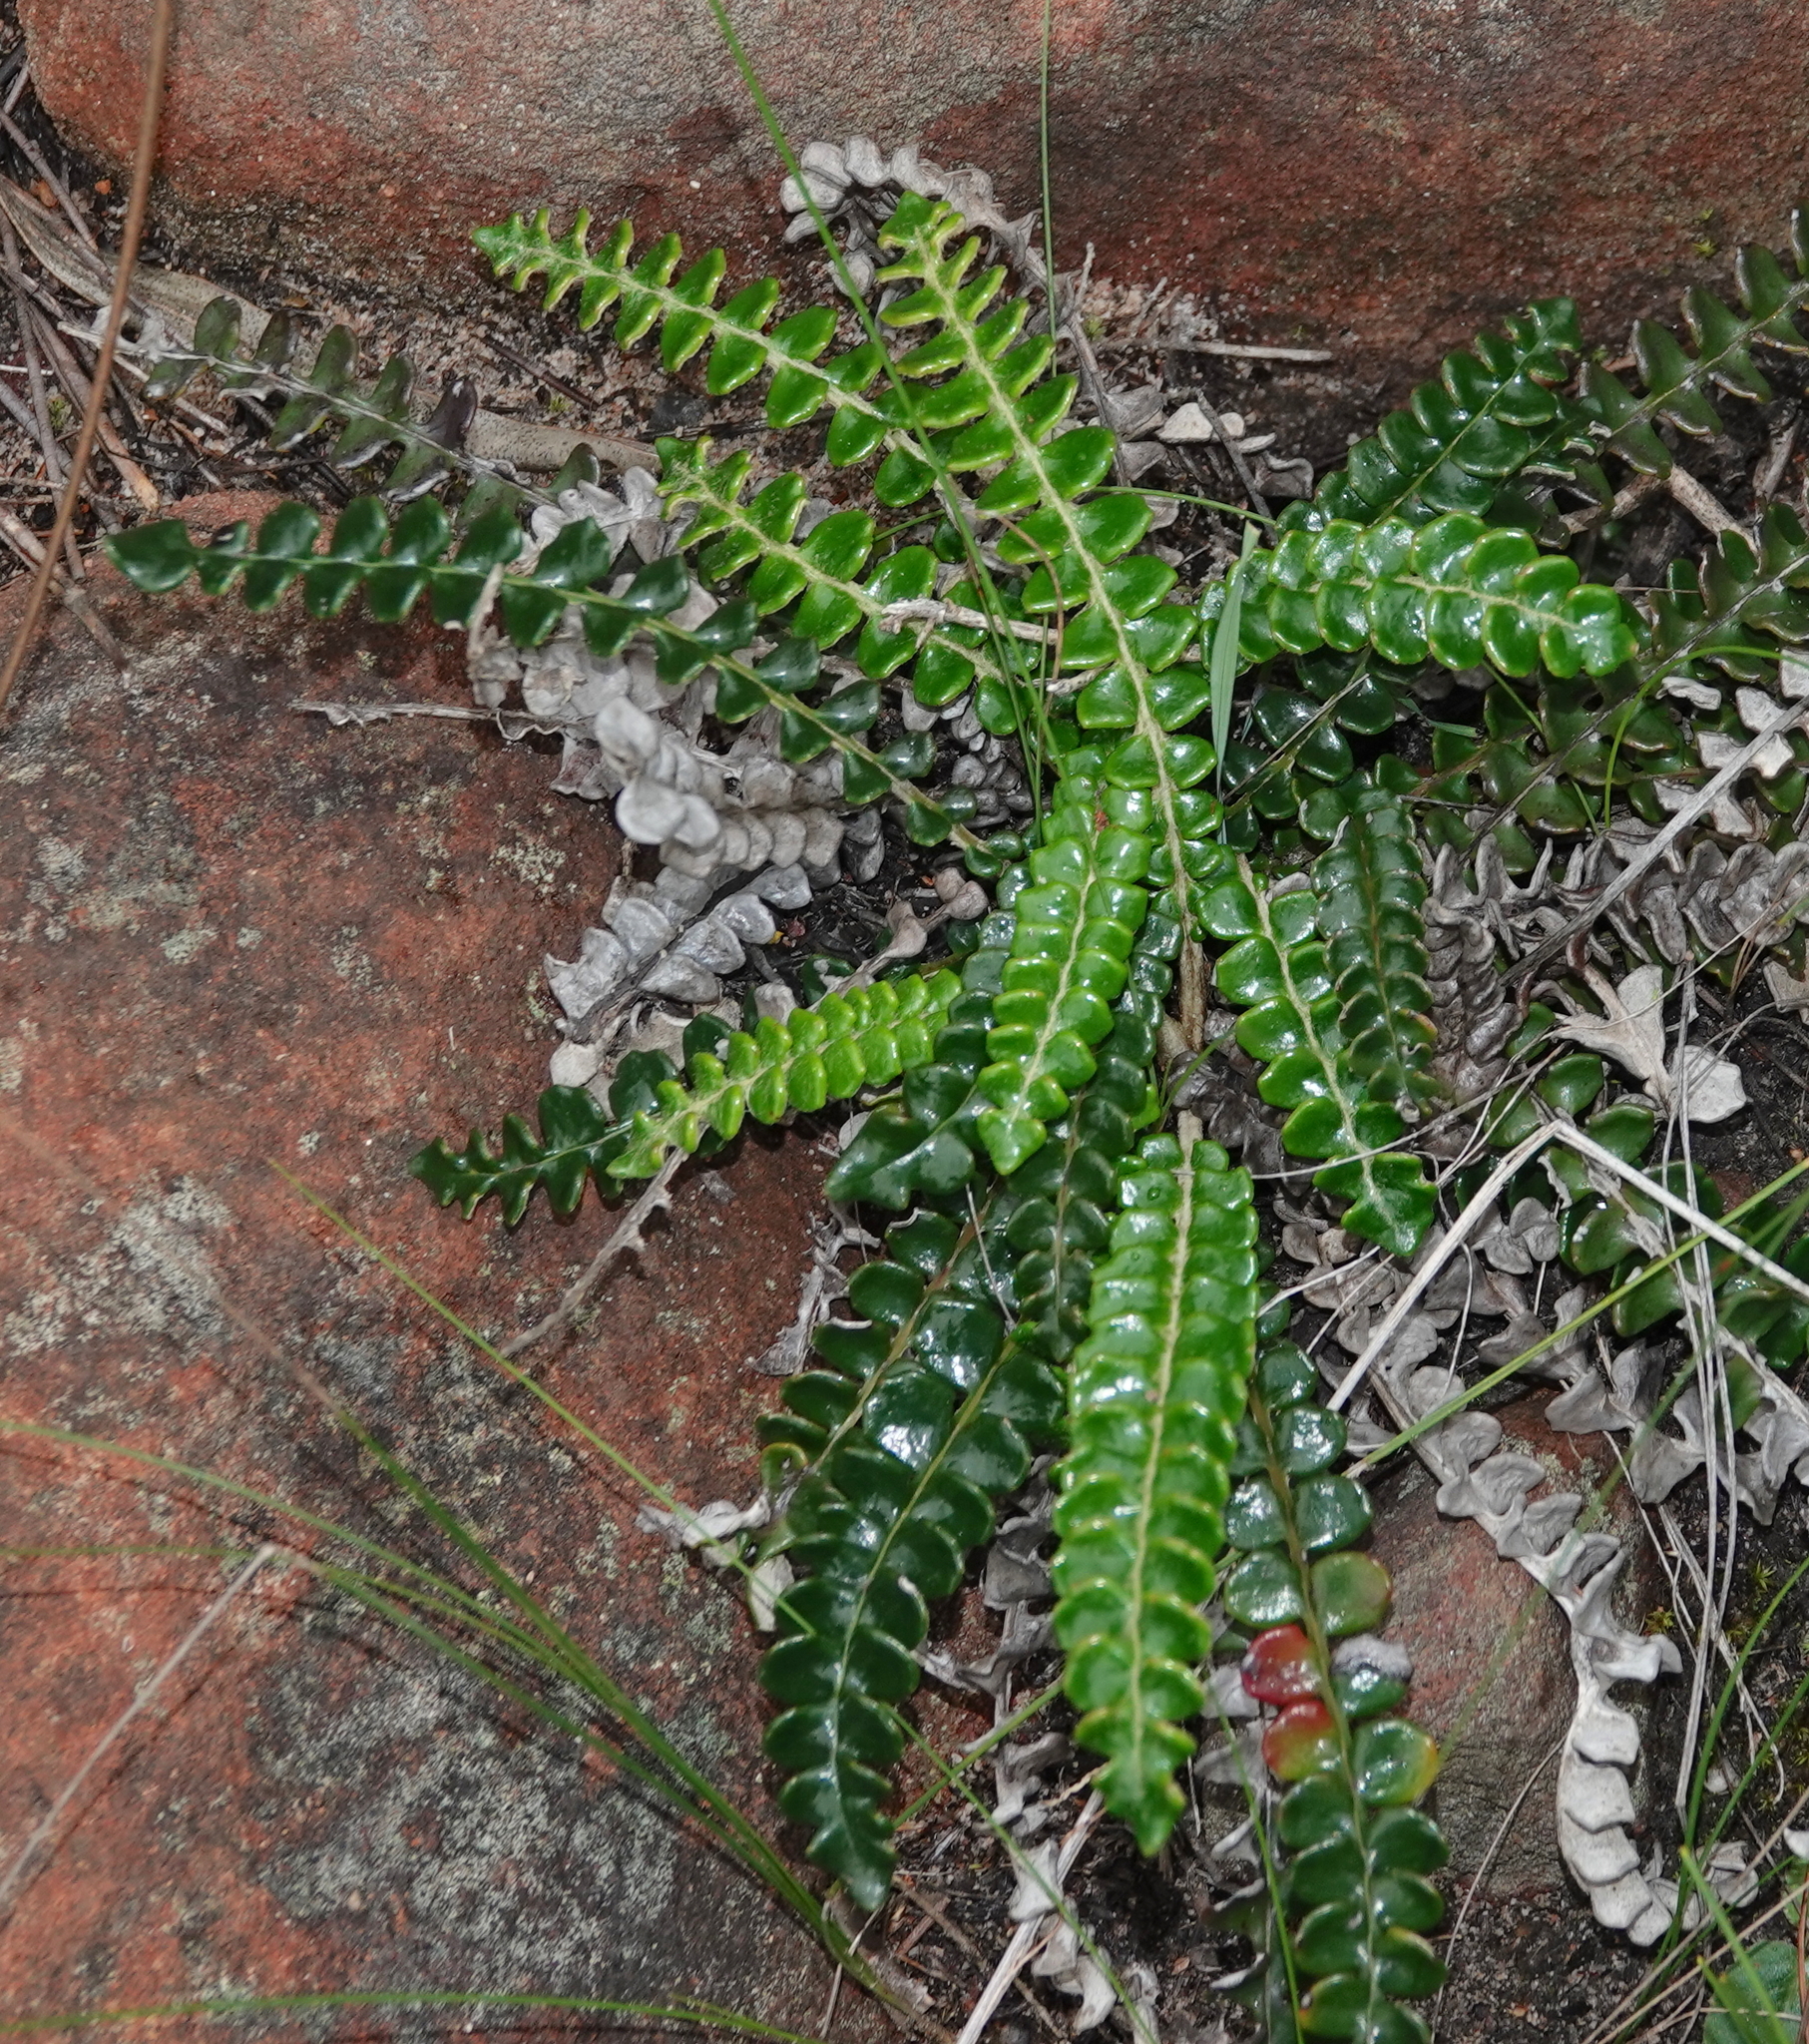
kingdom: Plantae
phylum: Tracheophyta
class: Magnoliopsida
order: Asterales
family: Asteraceae
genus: Gerbera
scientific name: Gerbera linnaei
